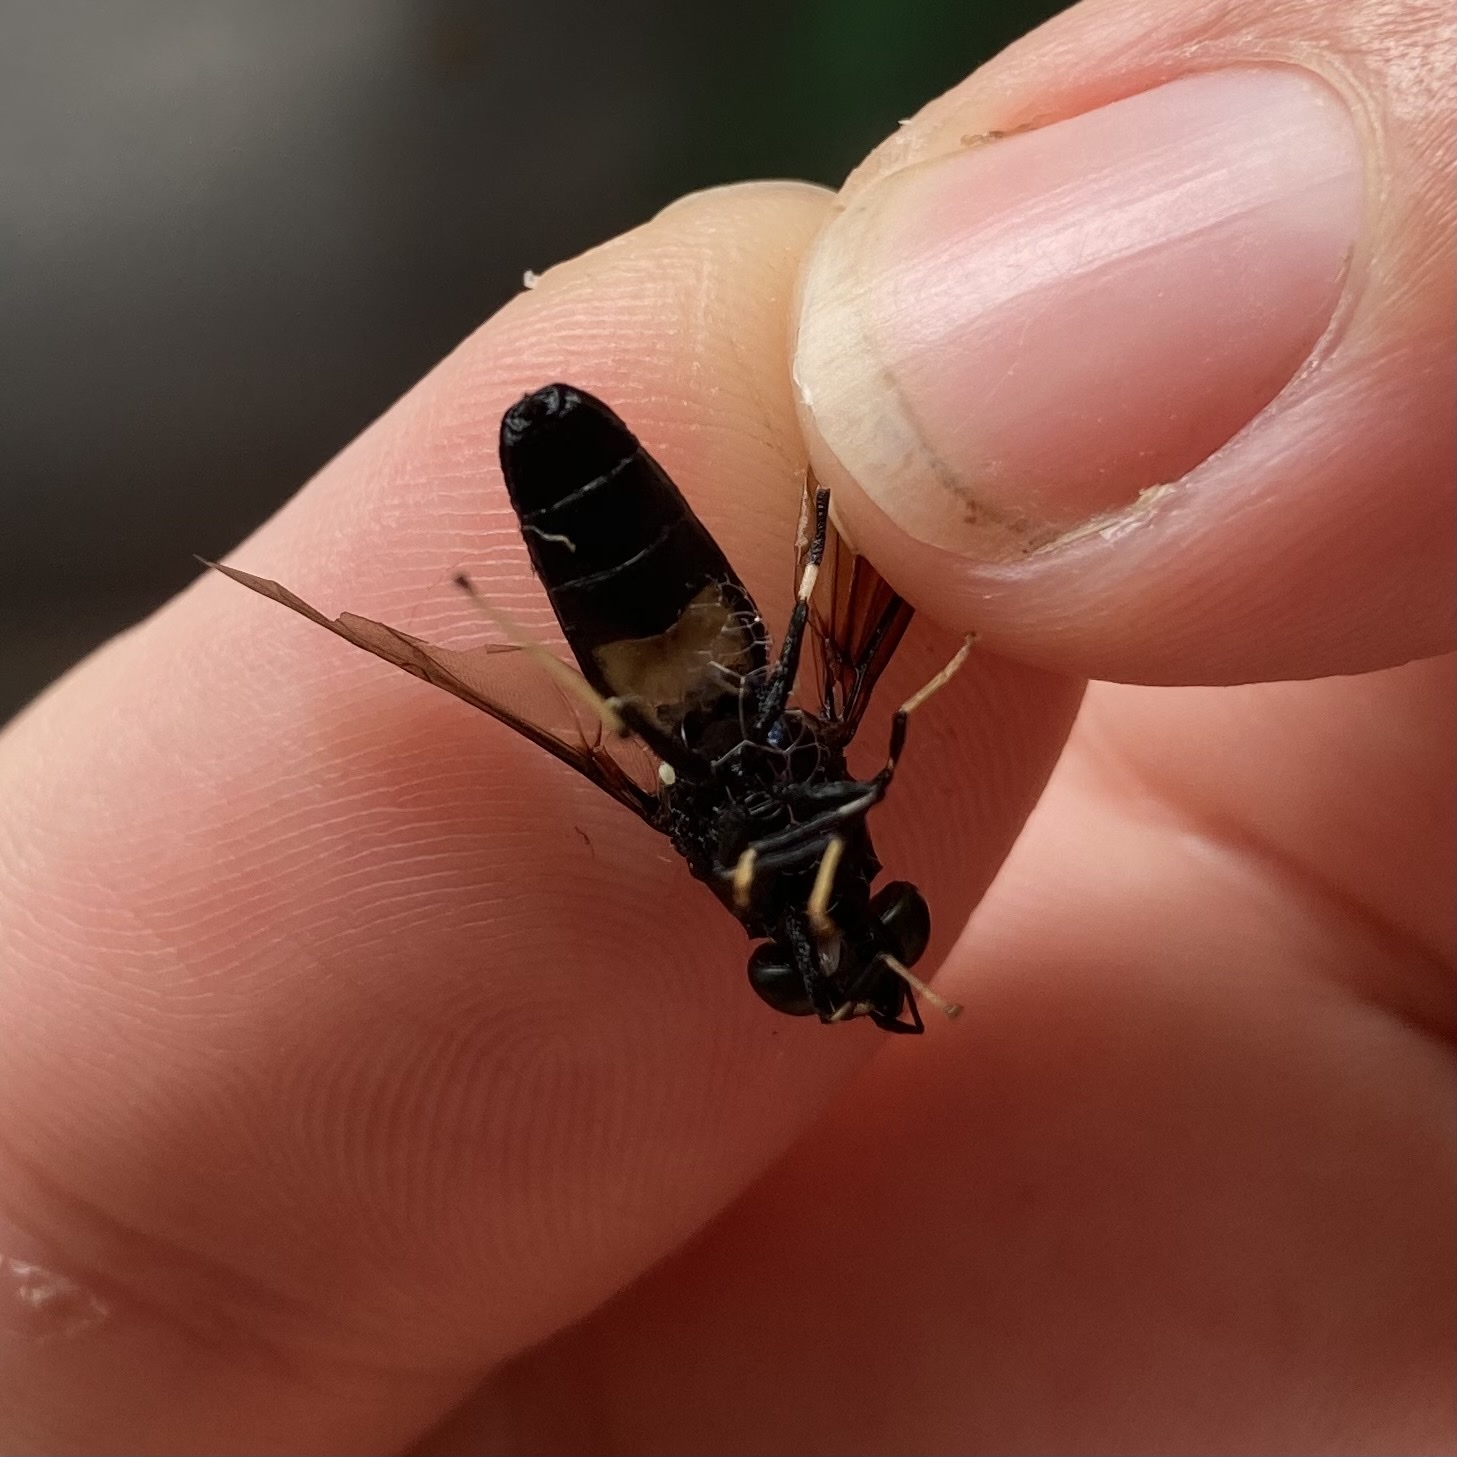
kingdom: Animalia
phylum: Arthropoda
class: Insecta
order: Diptera
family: Stratiomyidae
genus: Hermetia
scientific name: Hermetia illucens
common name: Black soldier fly
